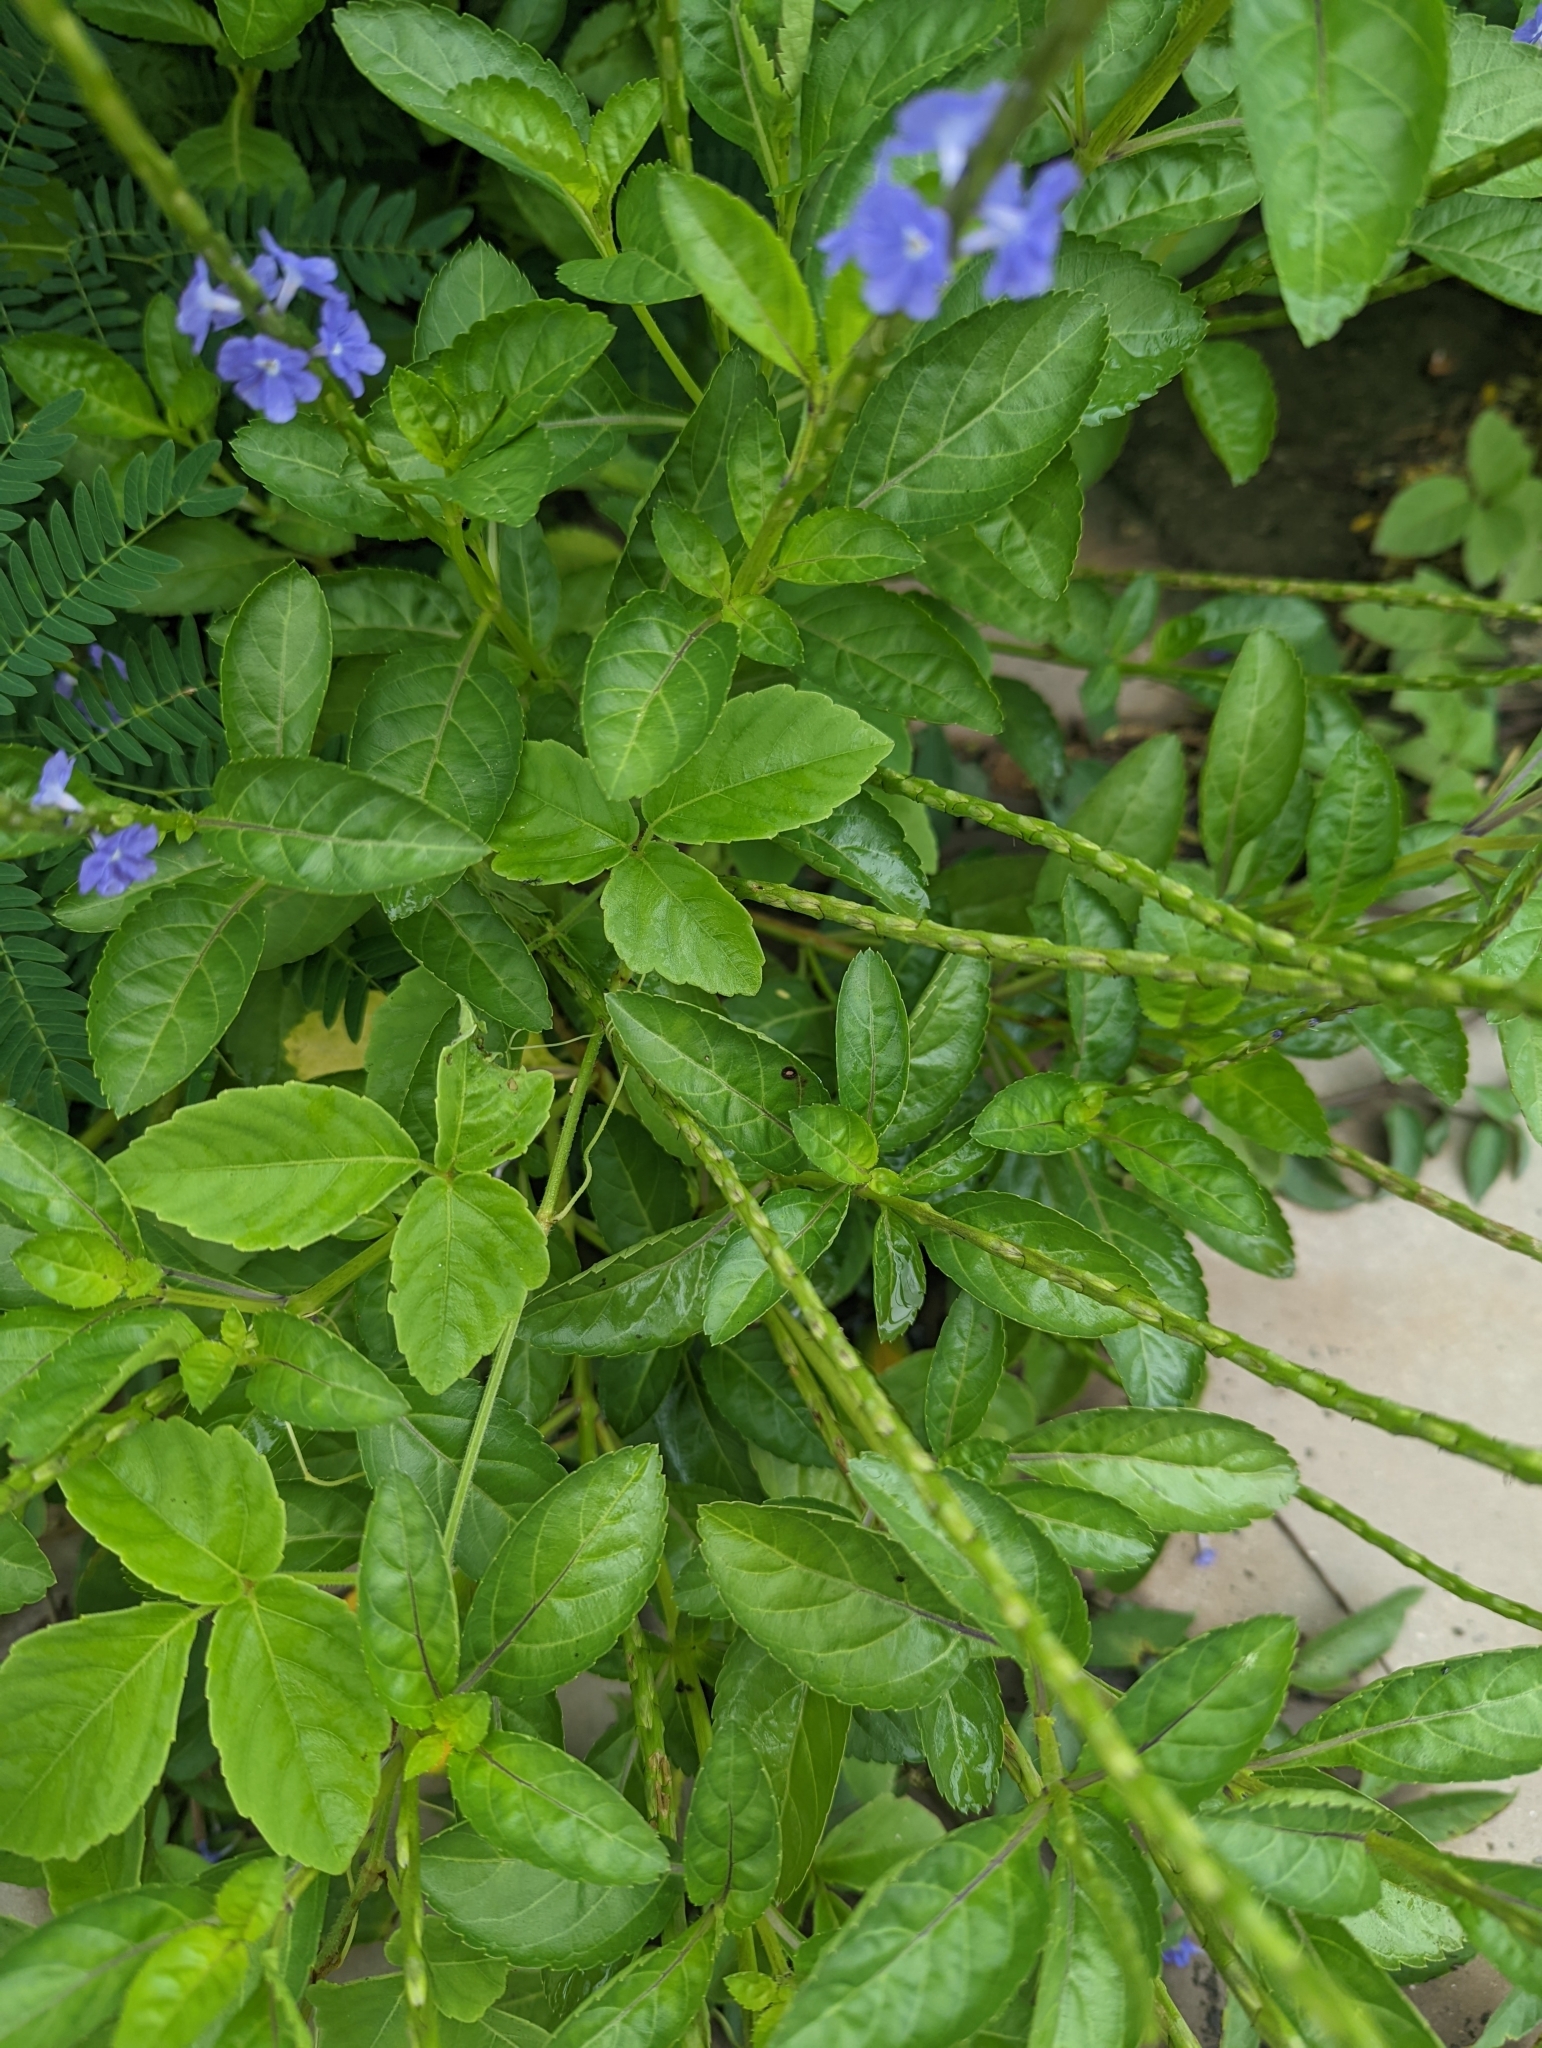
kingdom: Plantae
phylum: Tracheophyta
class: Magnoliopsida
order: Lamiales
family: Verbenaceae
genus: Stachytarpheta
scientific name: Stachytarpheta urticifolia
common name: Nettleleaf velvetberry
